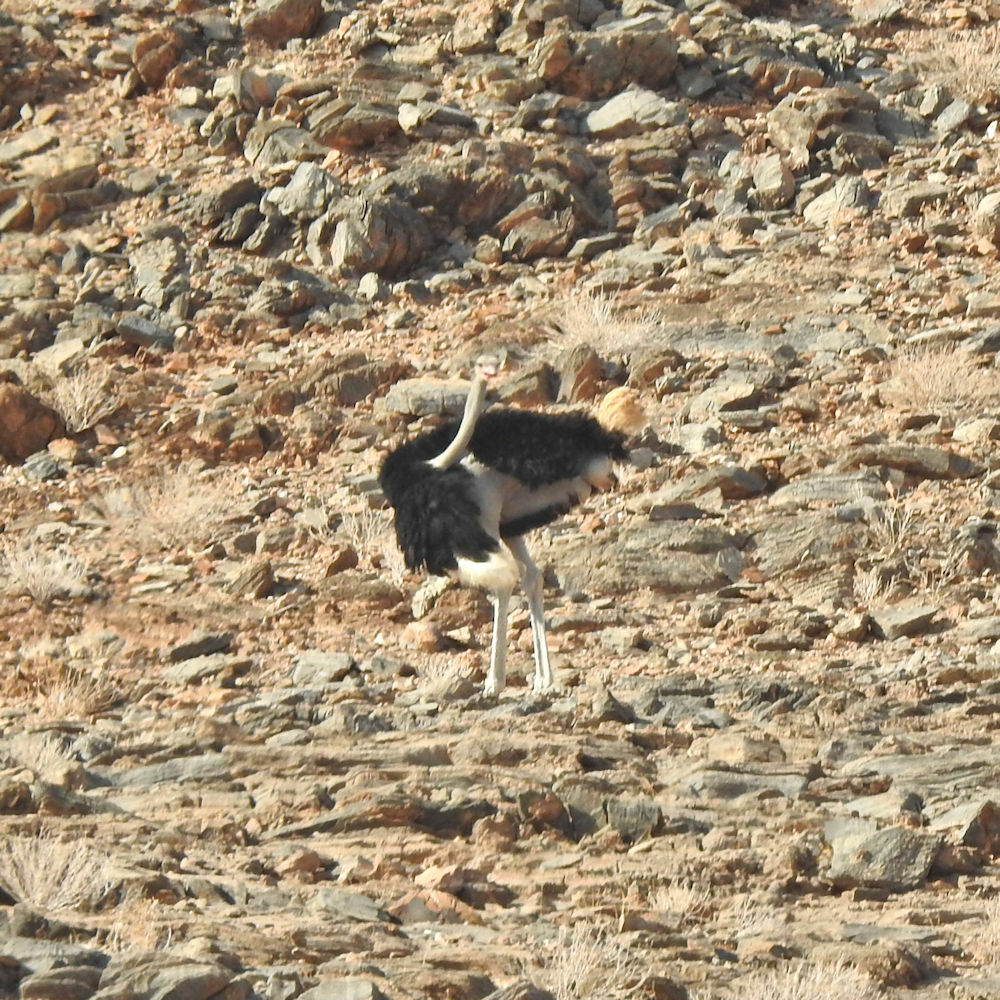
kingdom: Animalia
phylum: Chordata
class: Aves
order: Struthioniformes
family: Struthionidae
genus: Struthio
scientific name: Struthio camelus
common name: Common ostrich
